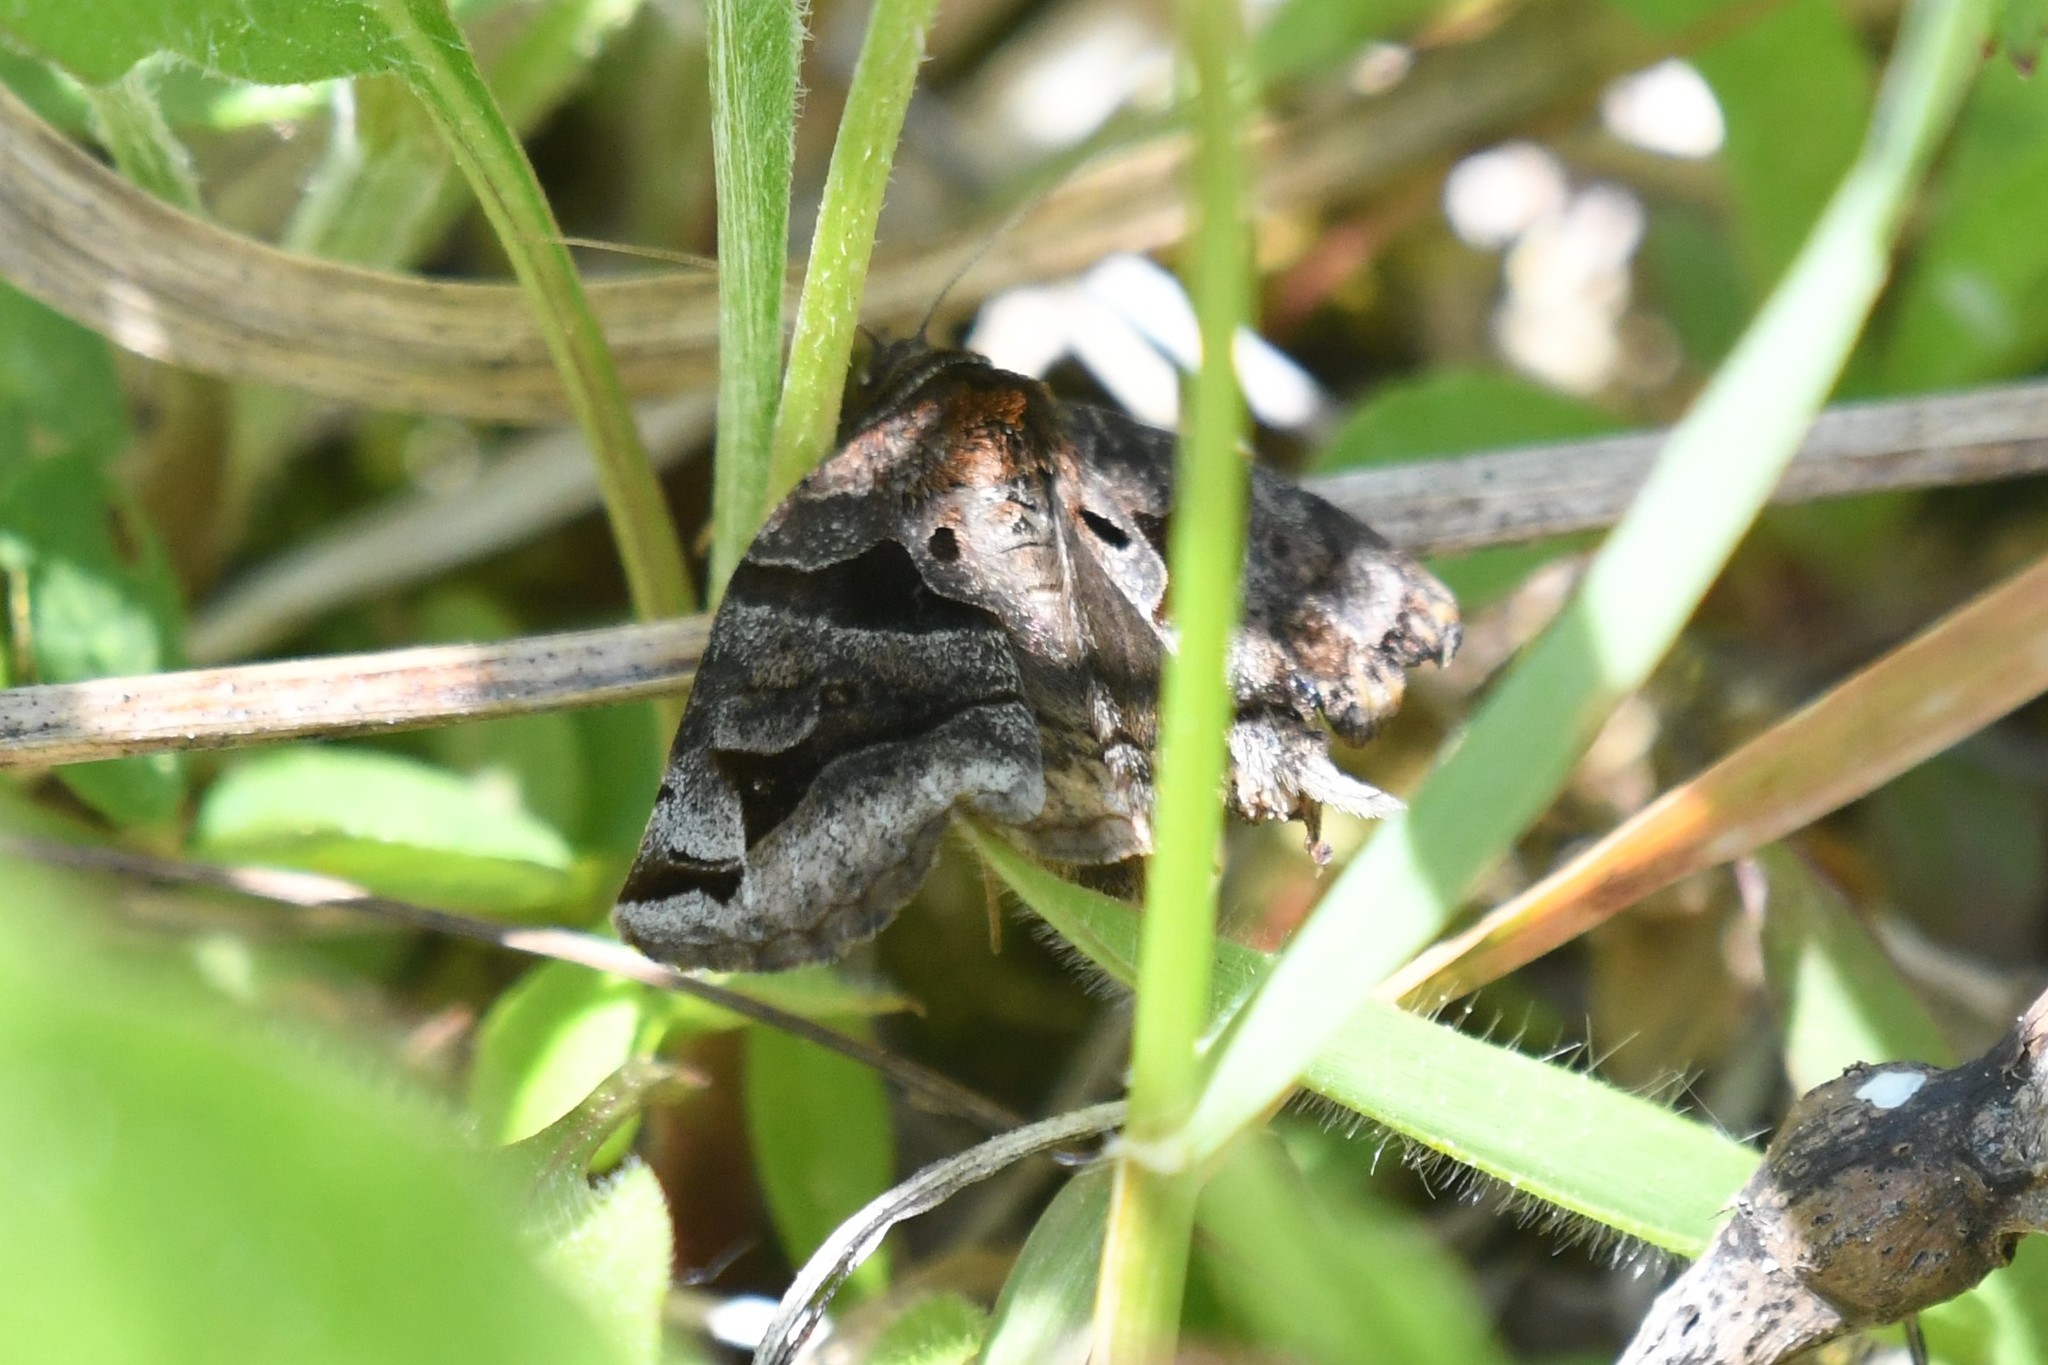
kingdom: Animalia
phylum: Arthropoda
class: Insecta
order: Lepidoptera
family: Erebidae
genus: Euclidia
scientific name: Euclidia cuspidea
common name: Toothed somberwing
